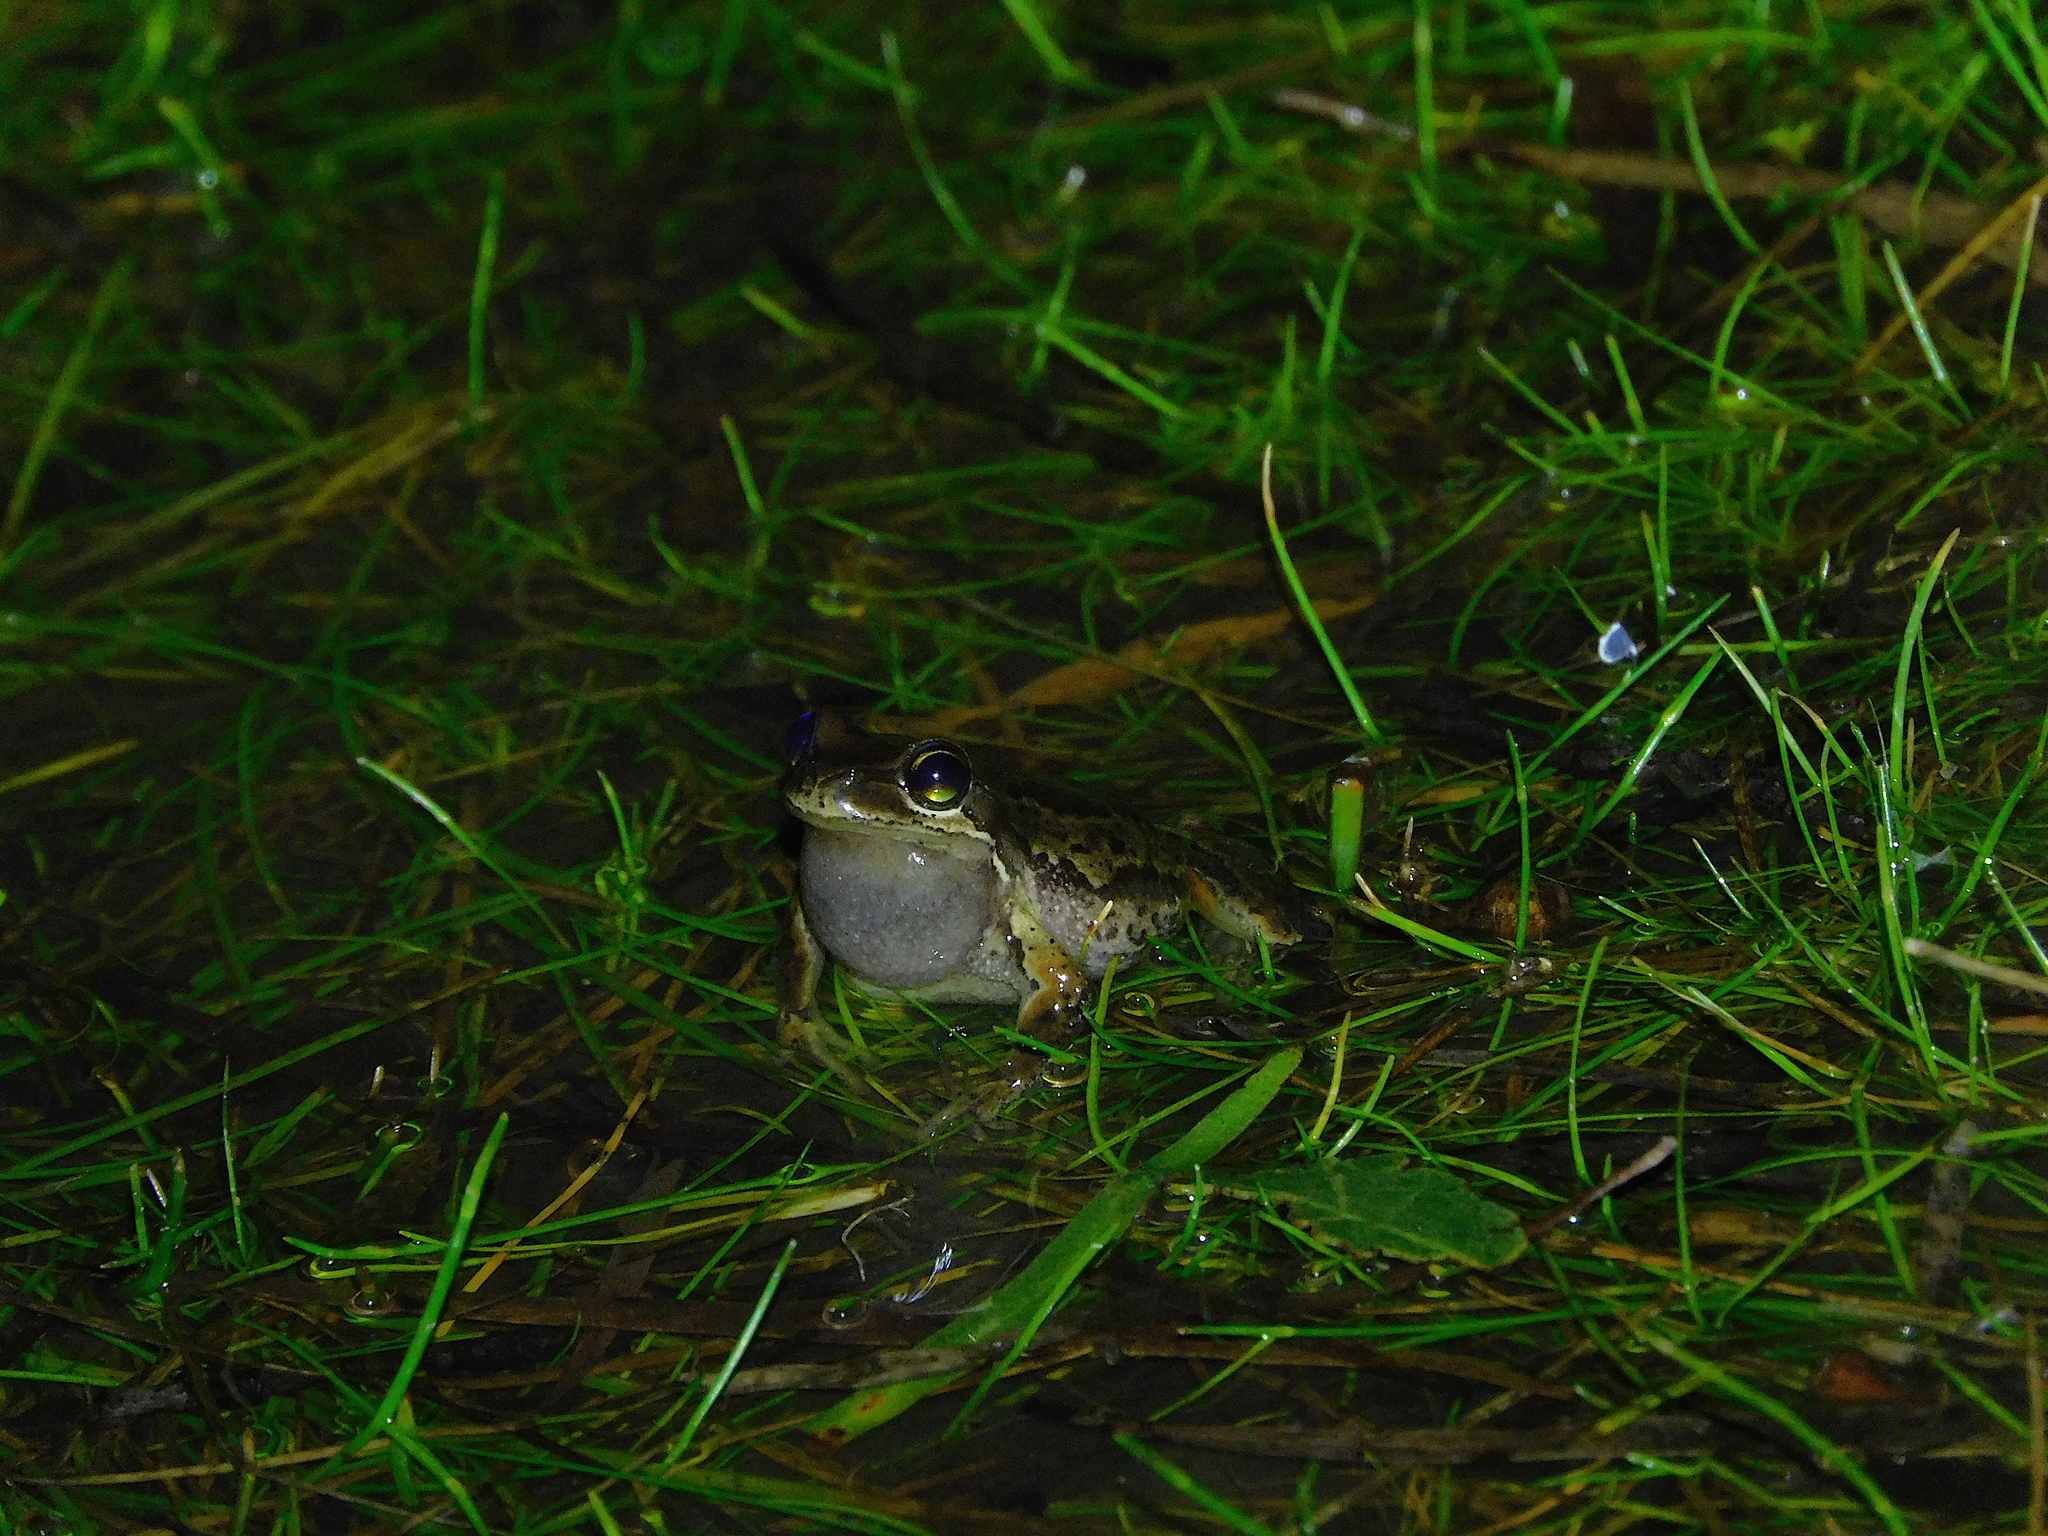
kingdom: Animalia
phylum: Chordata
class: Amphibia
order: Anura
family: Pelodryadidae
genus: Litoria
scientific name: Litoria ewingii
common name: Southern brown tree frog
